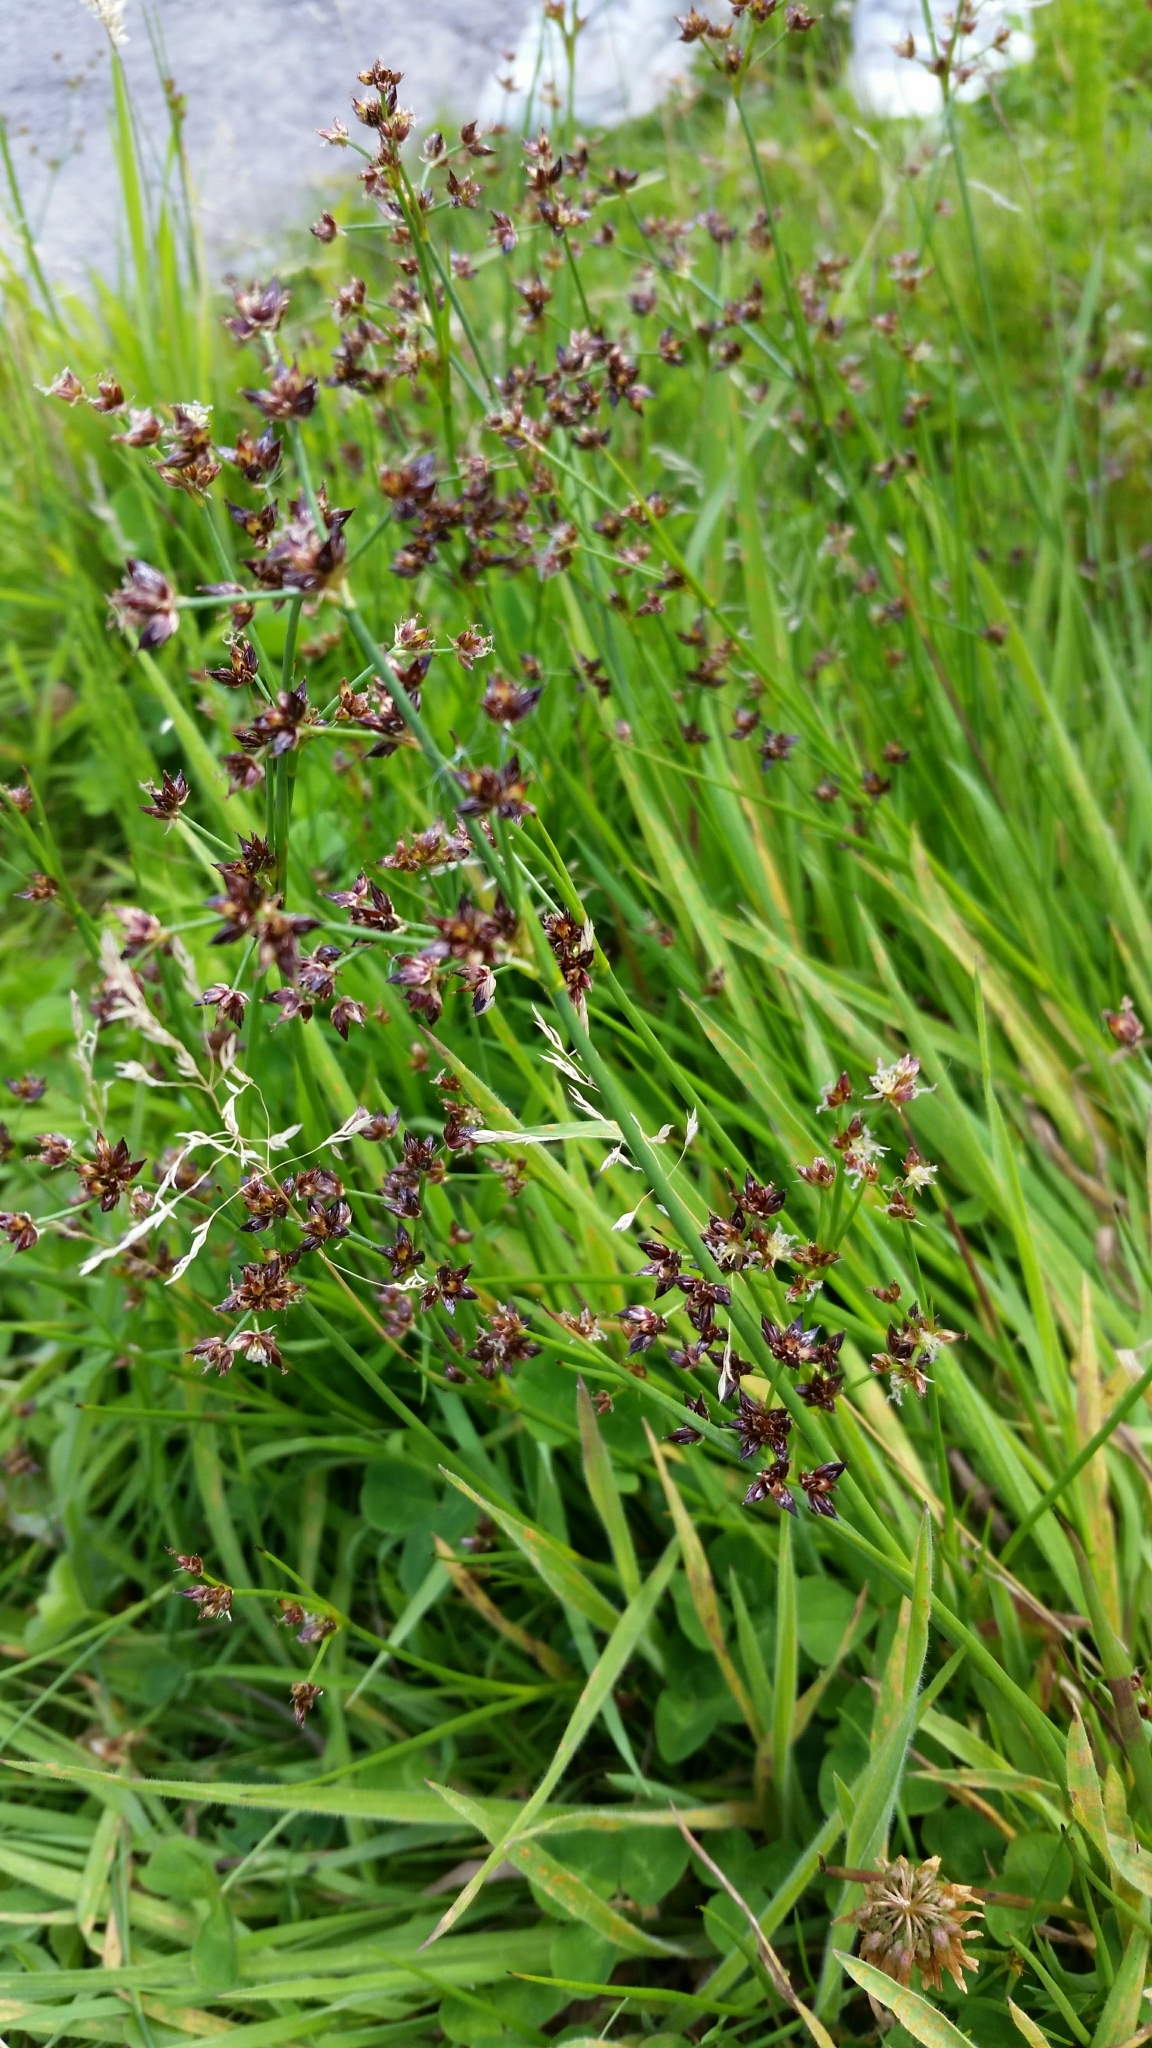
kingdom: Plantae
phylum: Tracheophyta
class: Liliopsida
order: Poales
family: Juncaceae
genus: Juncus
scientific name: Juncus articulatus
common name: Jointed rush
